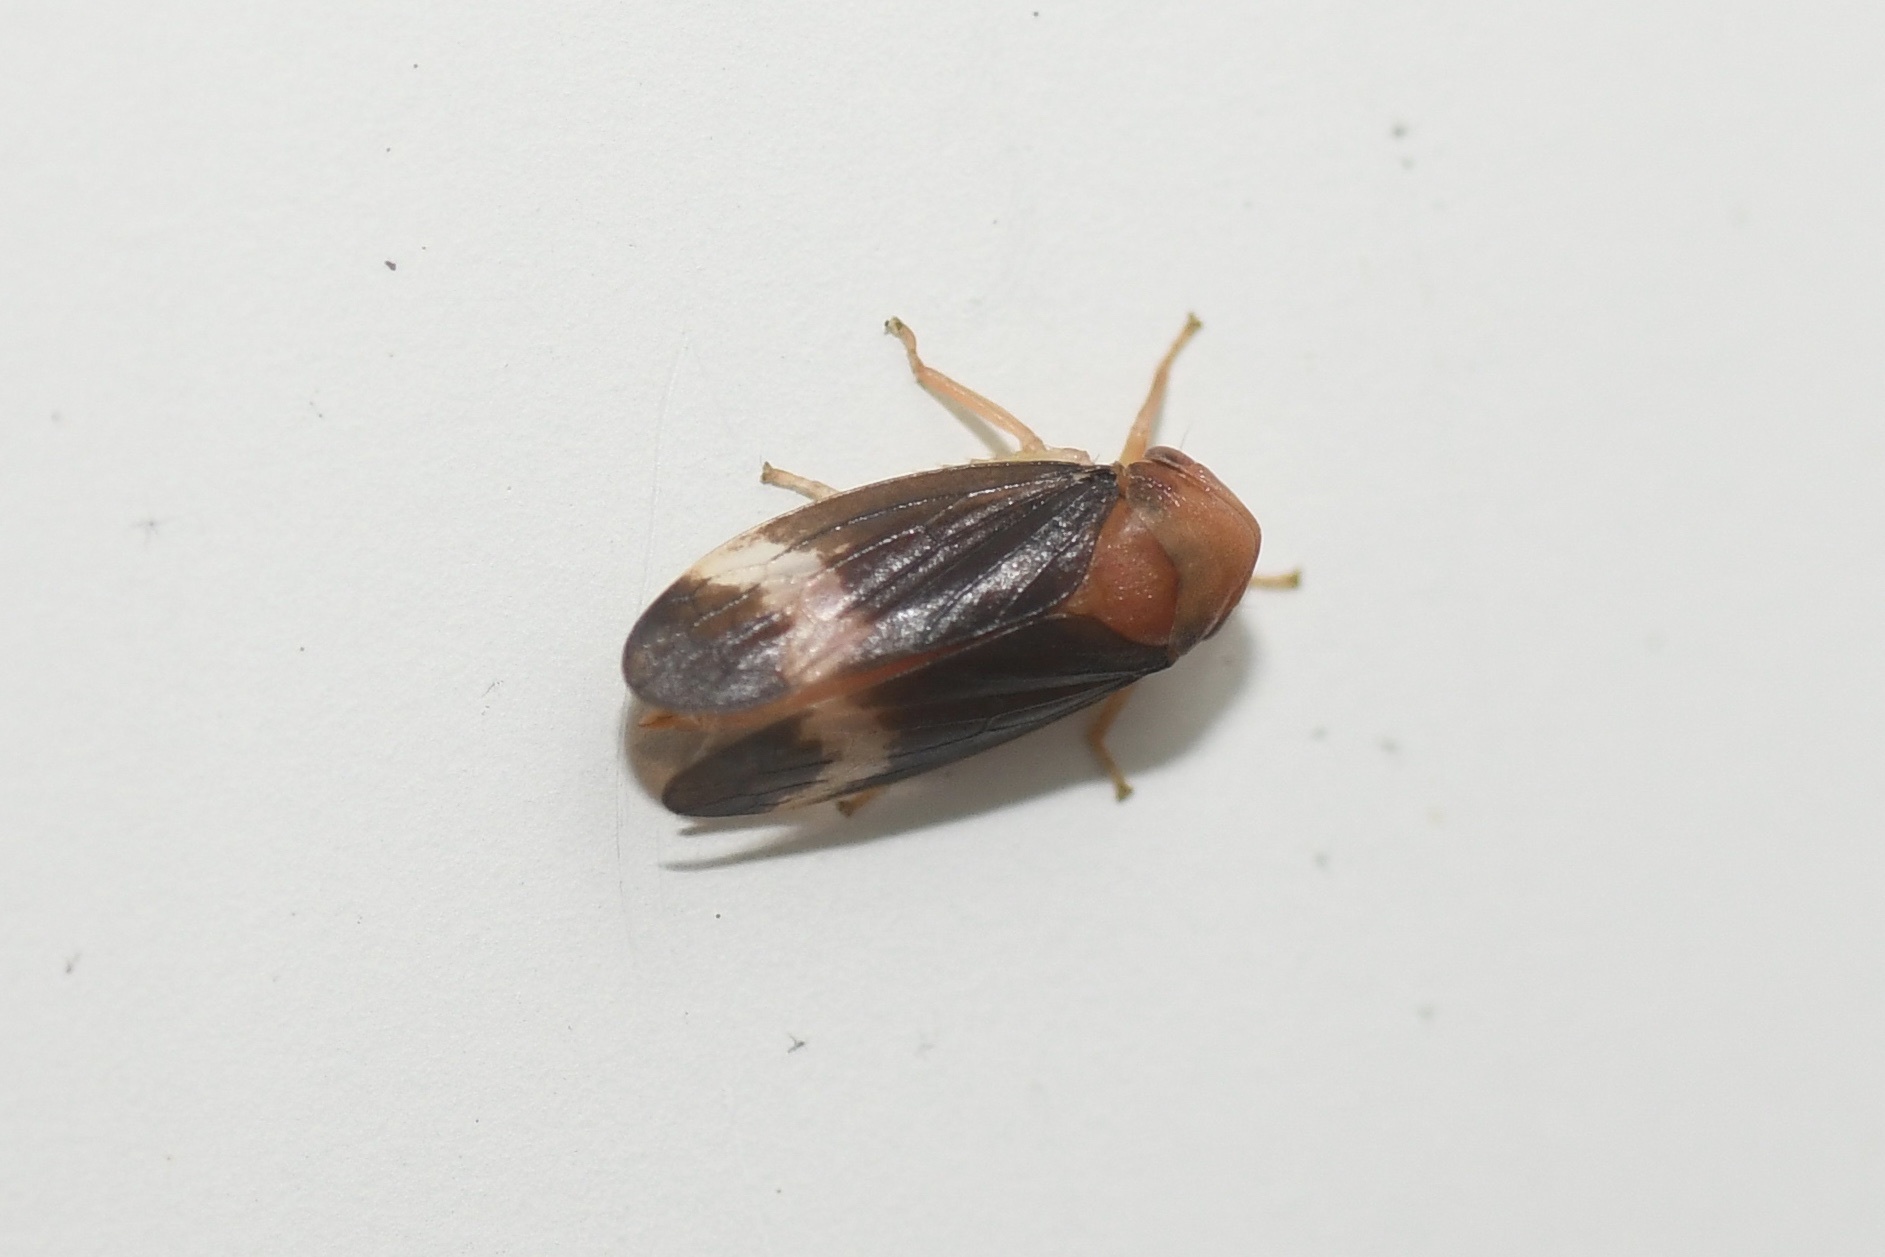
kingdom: Animalia
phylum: Arthropoda
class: Insecta
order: Hemiptera
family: Cicadellidae
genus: Macropsis
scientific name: Macropsis basalis
